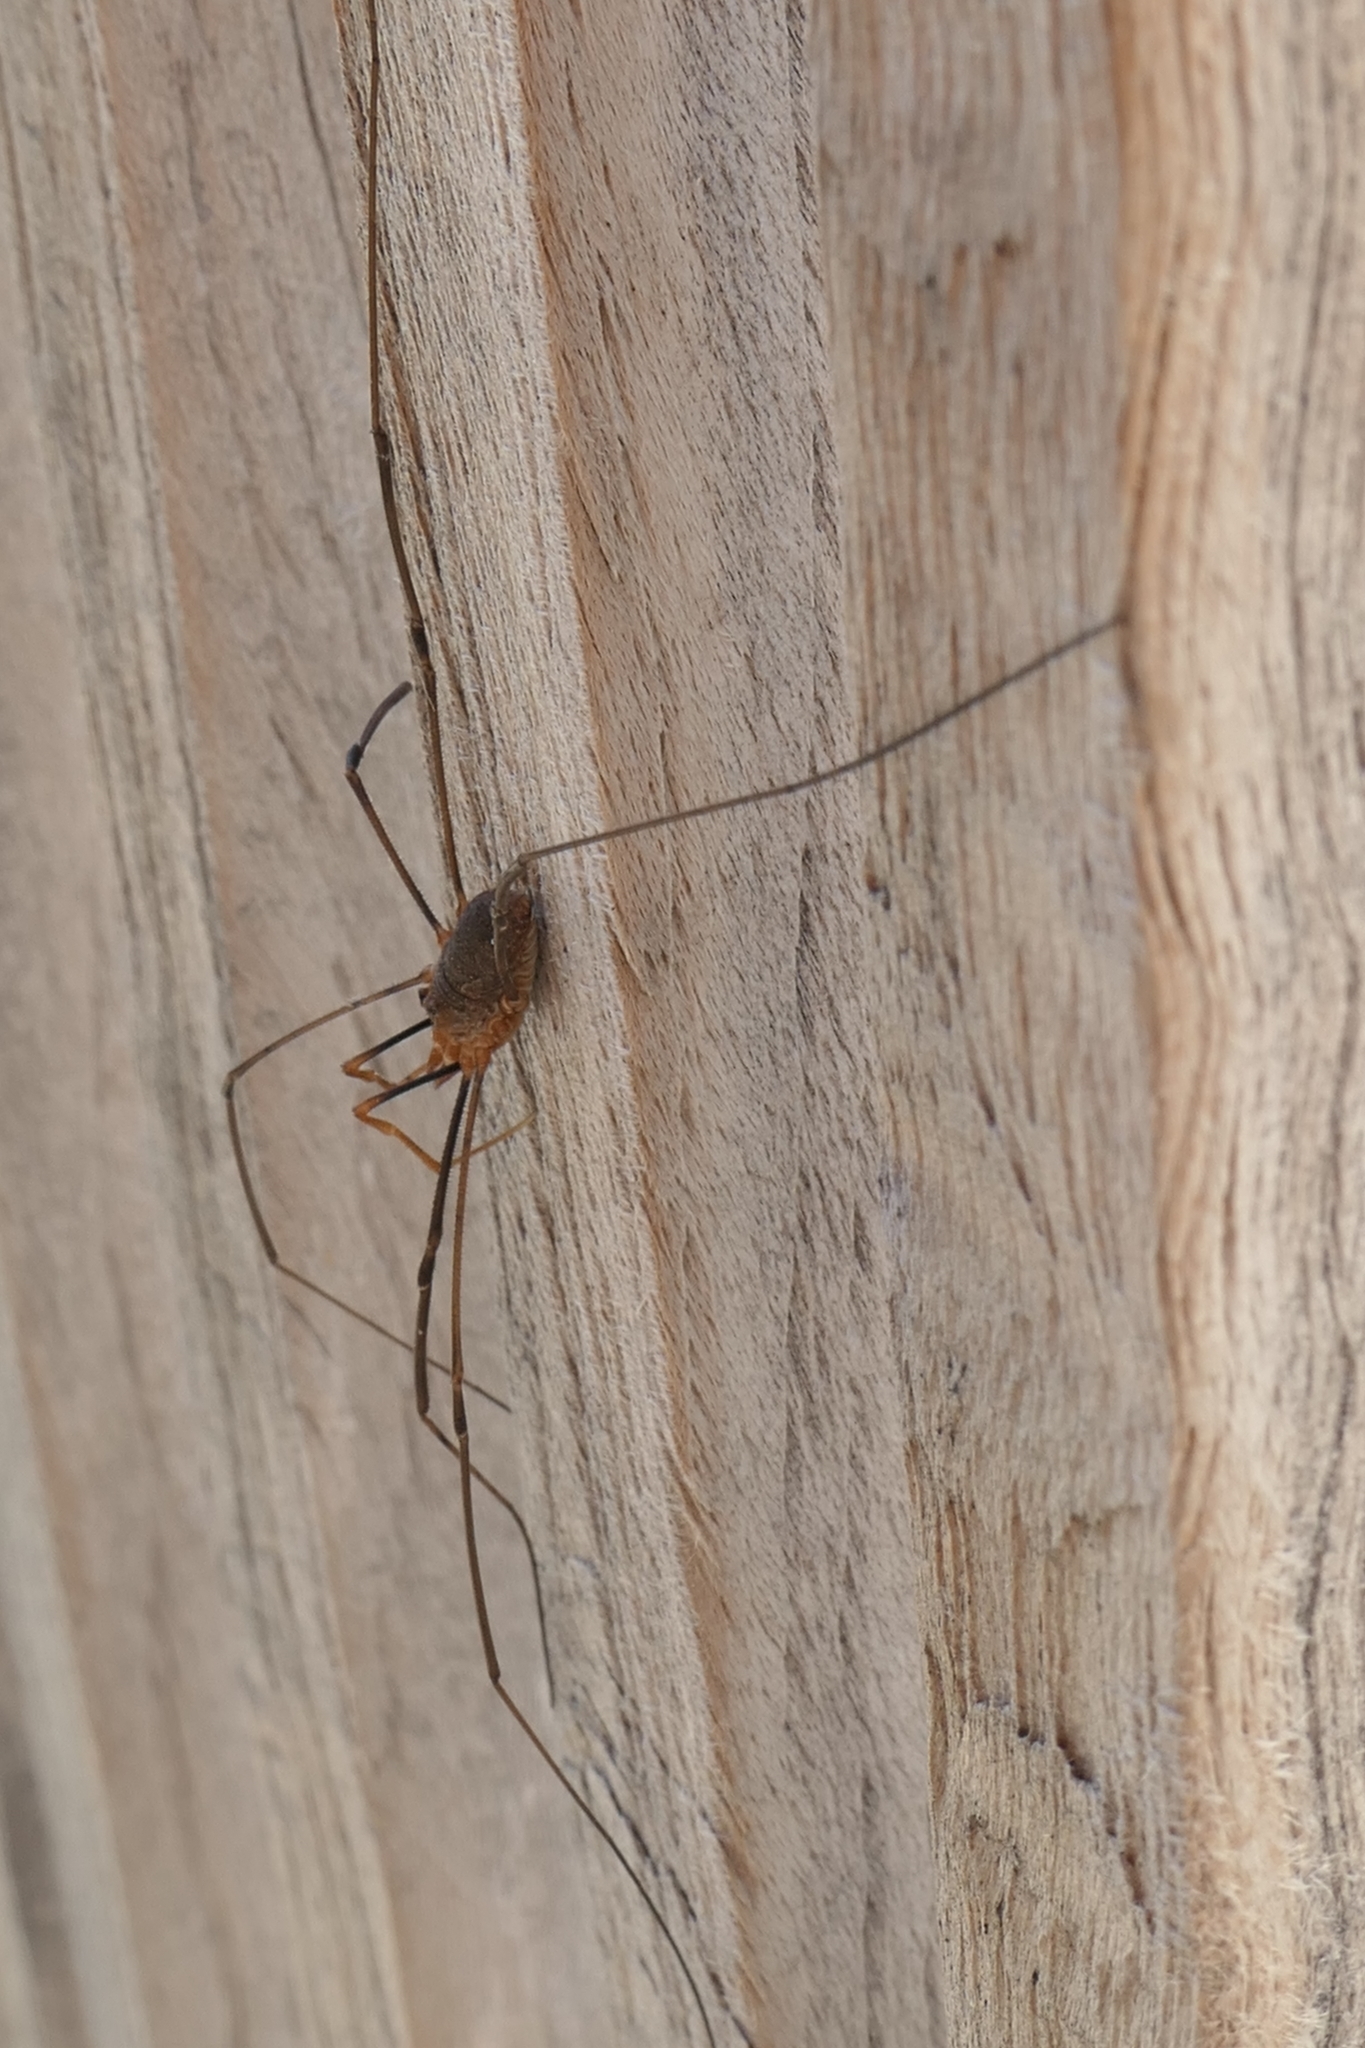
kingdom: Animalia
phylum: Arthropoda
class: Arachnida
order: Opiliones
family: Phalangiidae
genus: Phalangium
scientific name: Phalangium opilio
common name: Daddy longleg
